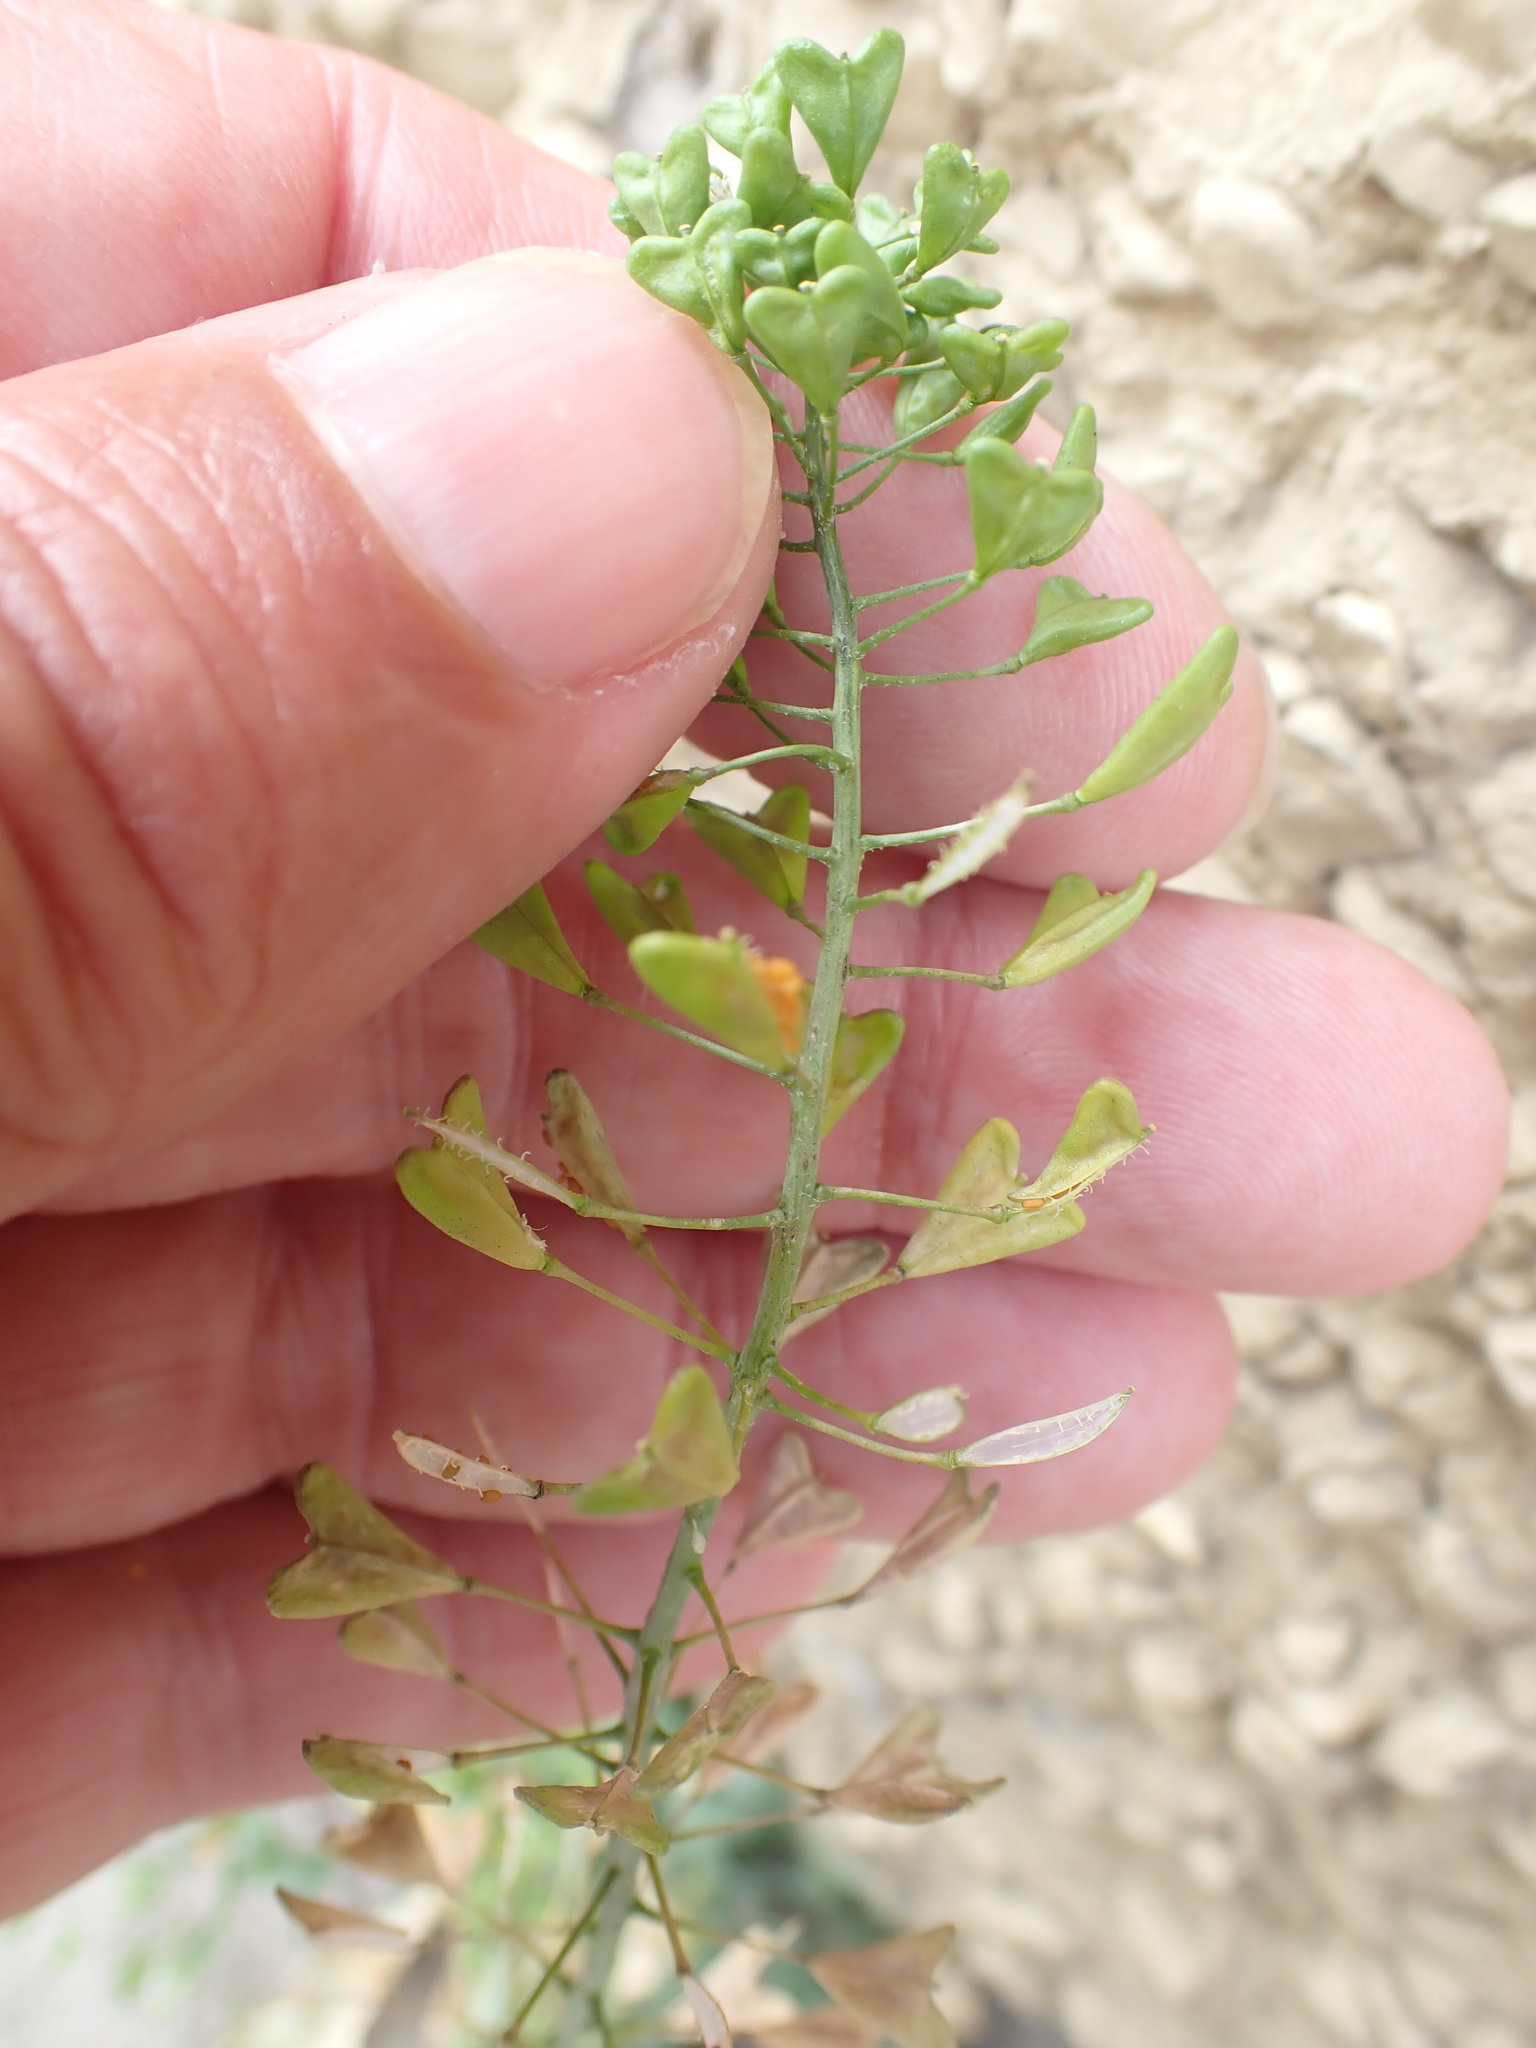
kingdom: Plantae
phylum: Tracheophyta
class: Magnoliopsida
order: Brassicales
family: Brassicaceae
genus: Capsella
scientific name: Capsella bursa-pastoris
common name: Shepherd's purse
